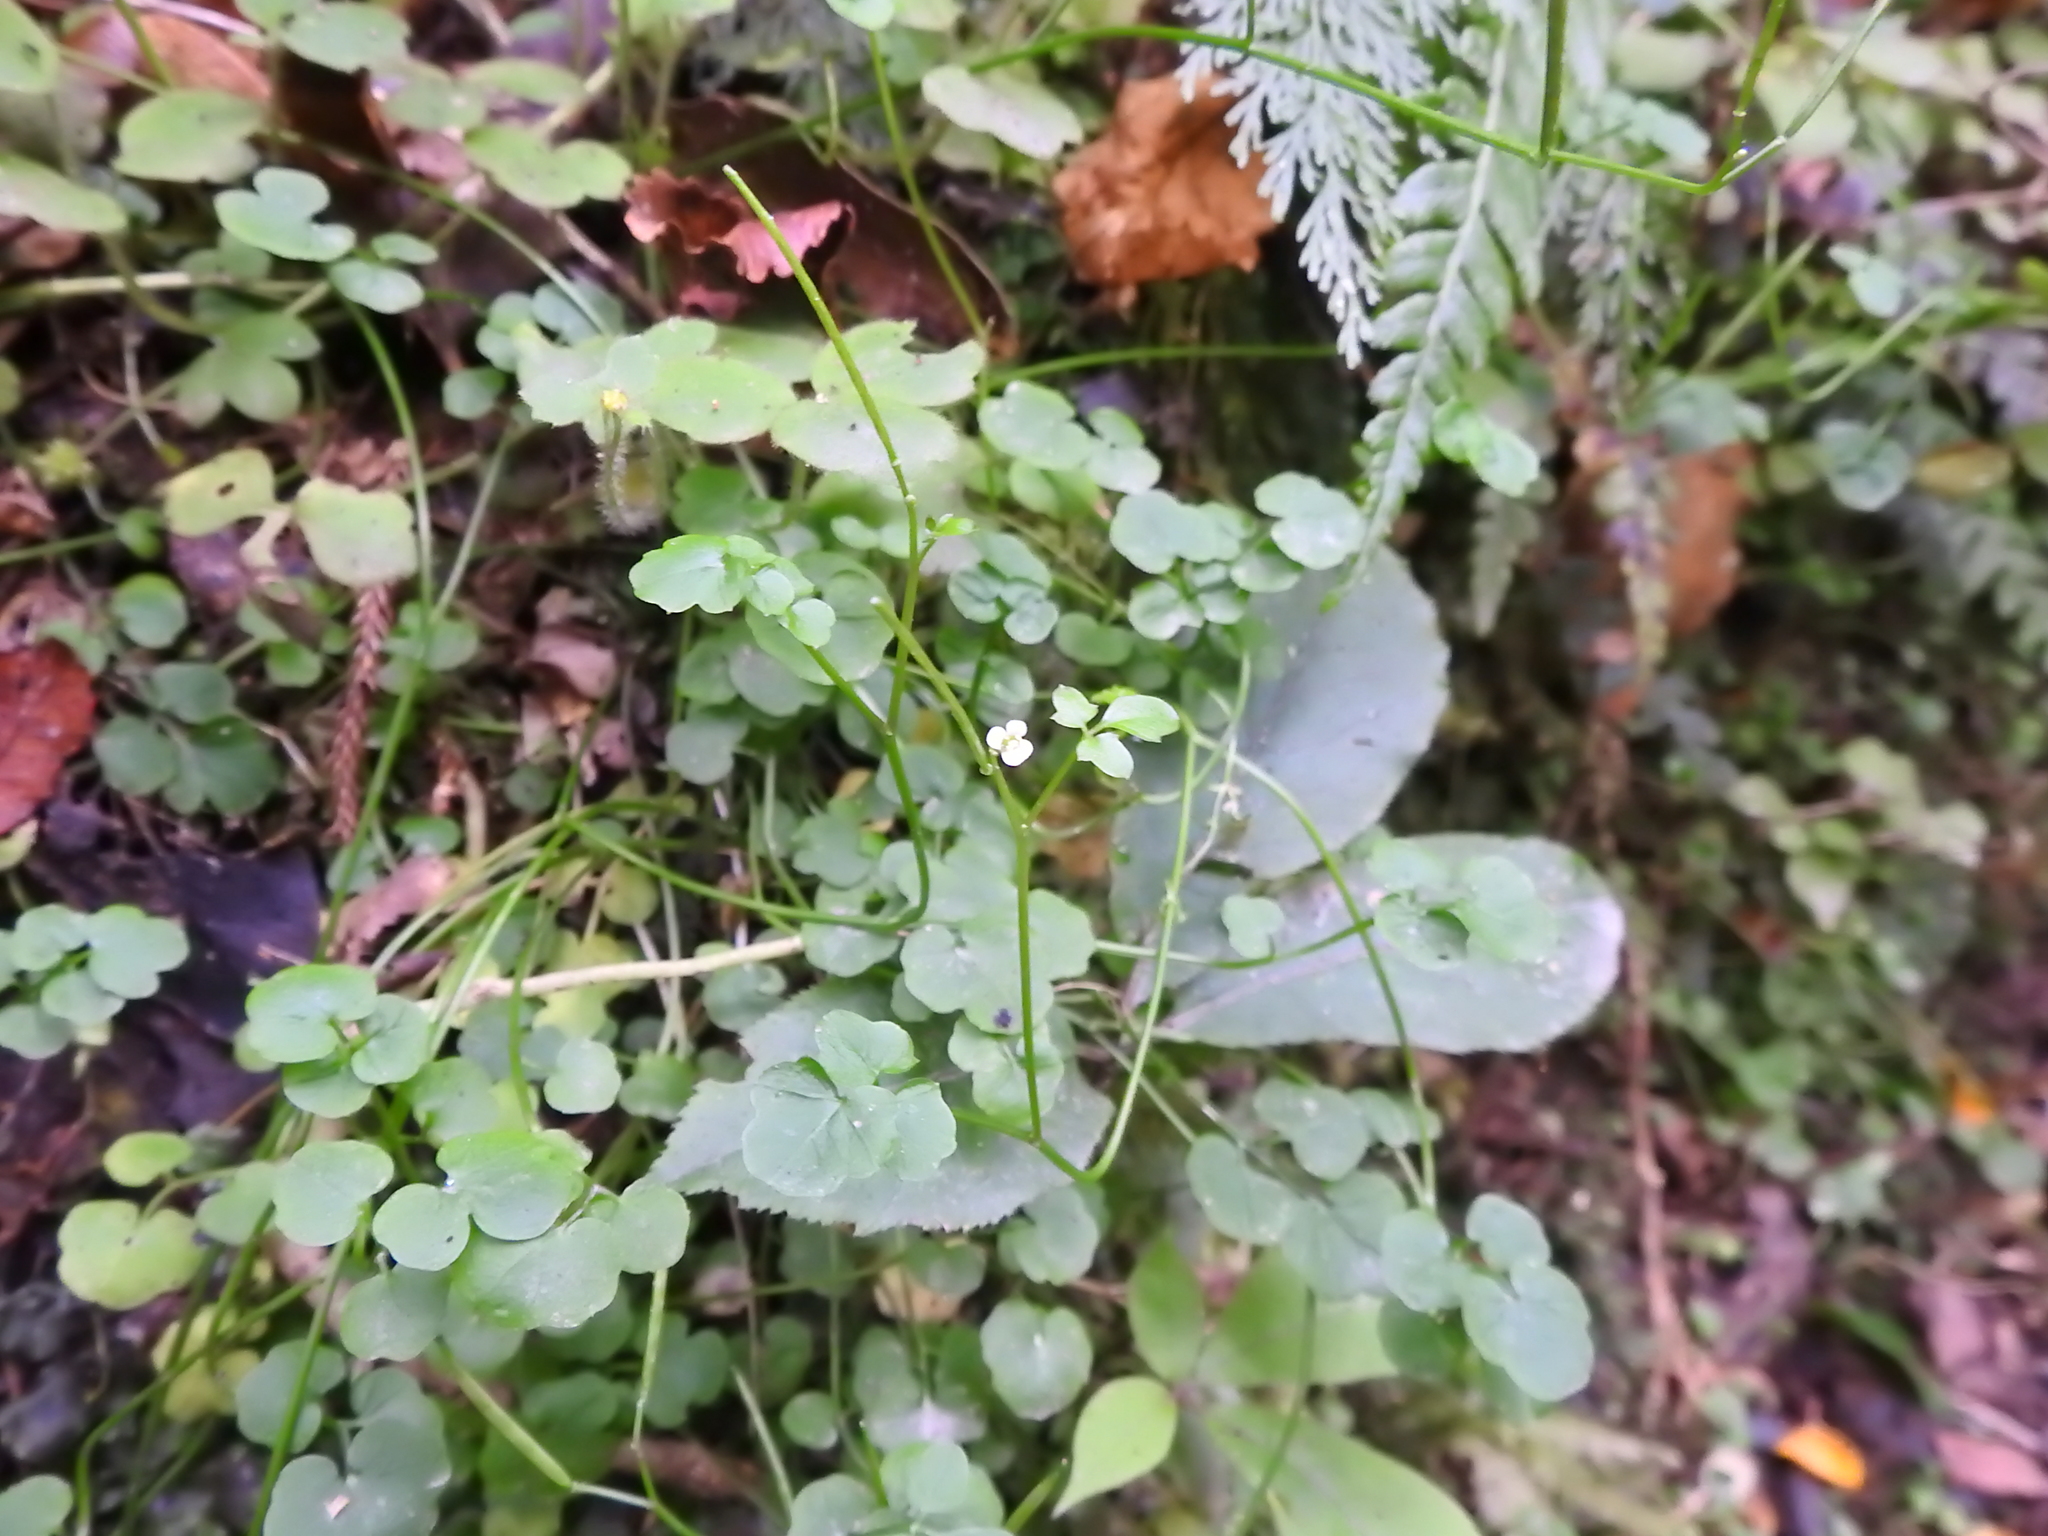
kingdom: Plantae
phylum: Tracheophyta
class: Magnoliopsida
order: Brassicales
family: Brassicaceae
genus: Cardamine
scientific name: Cardamine forsteri
